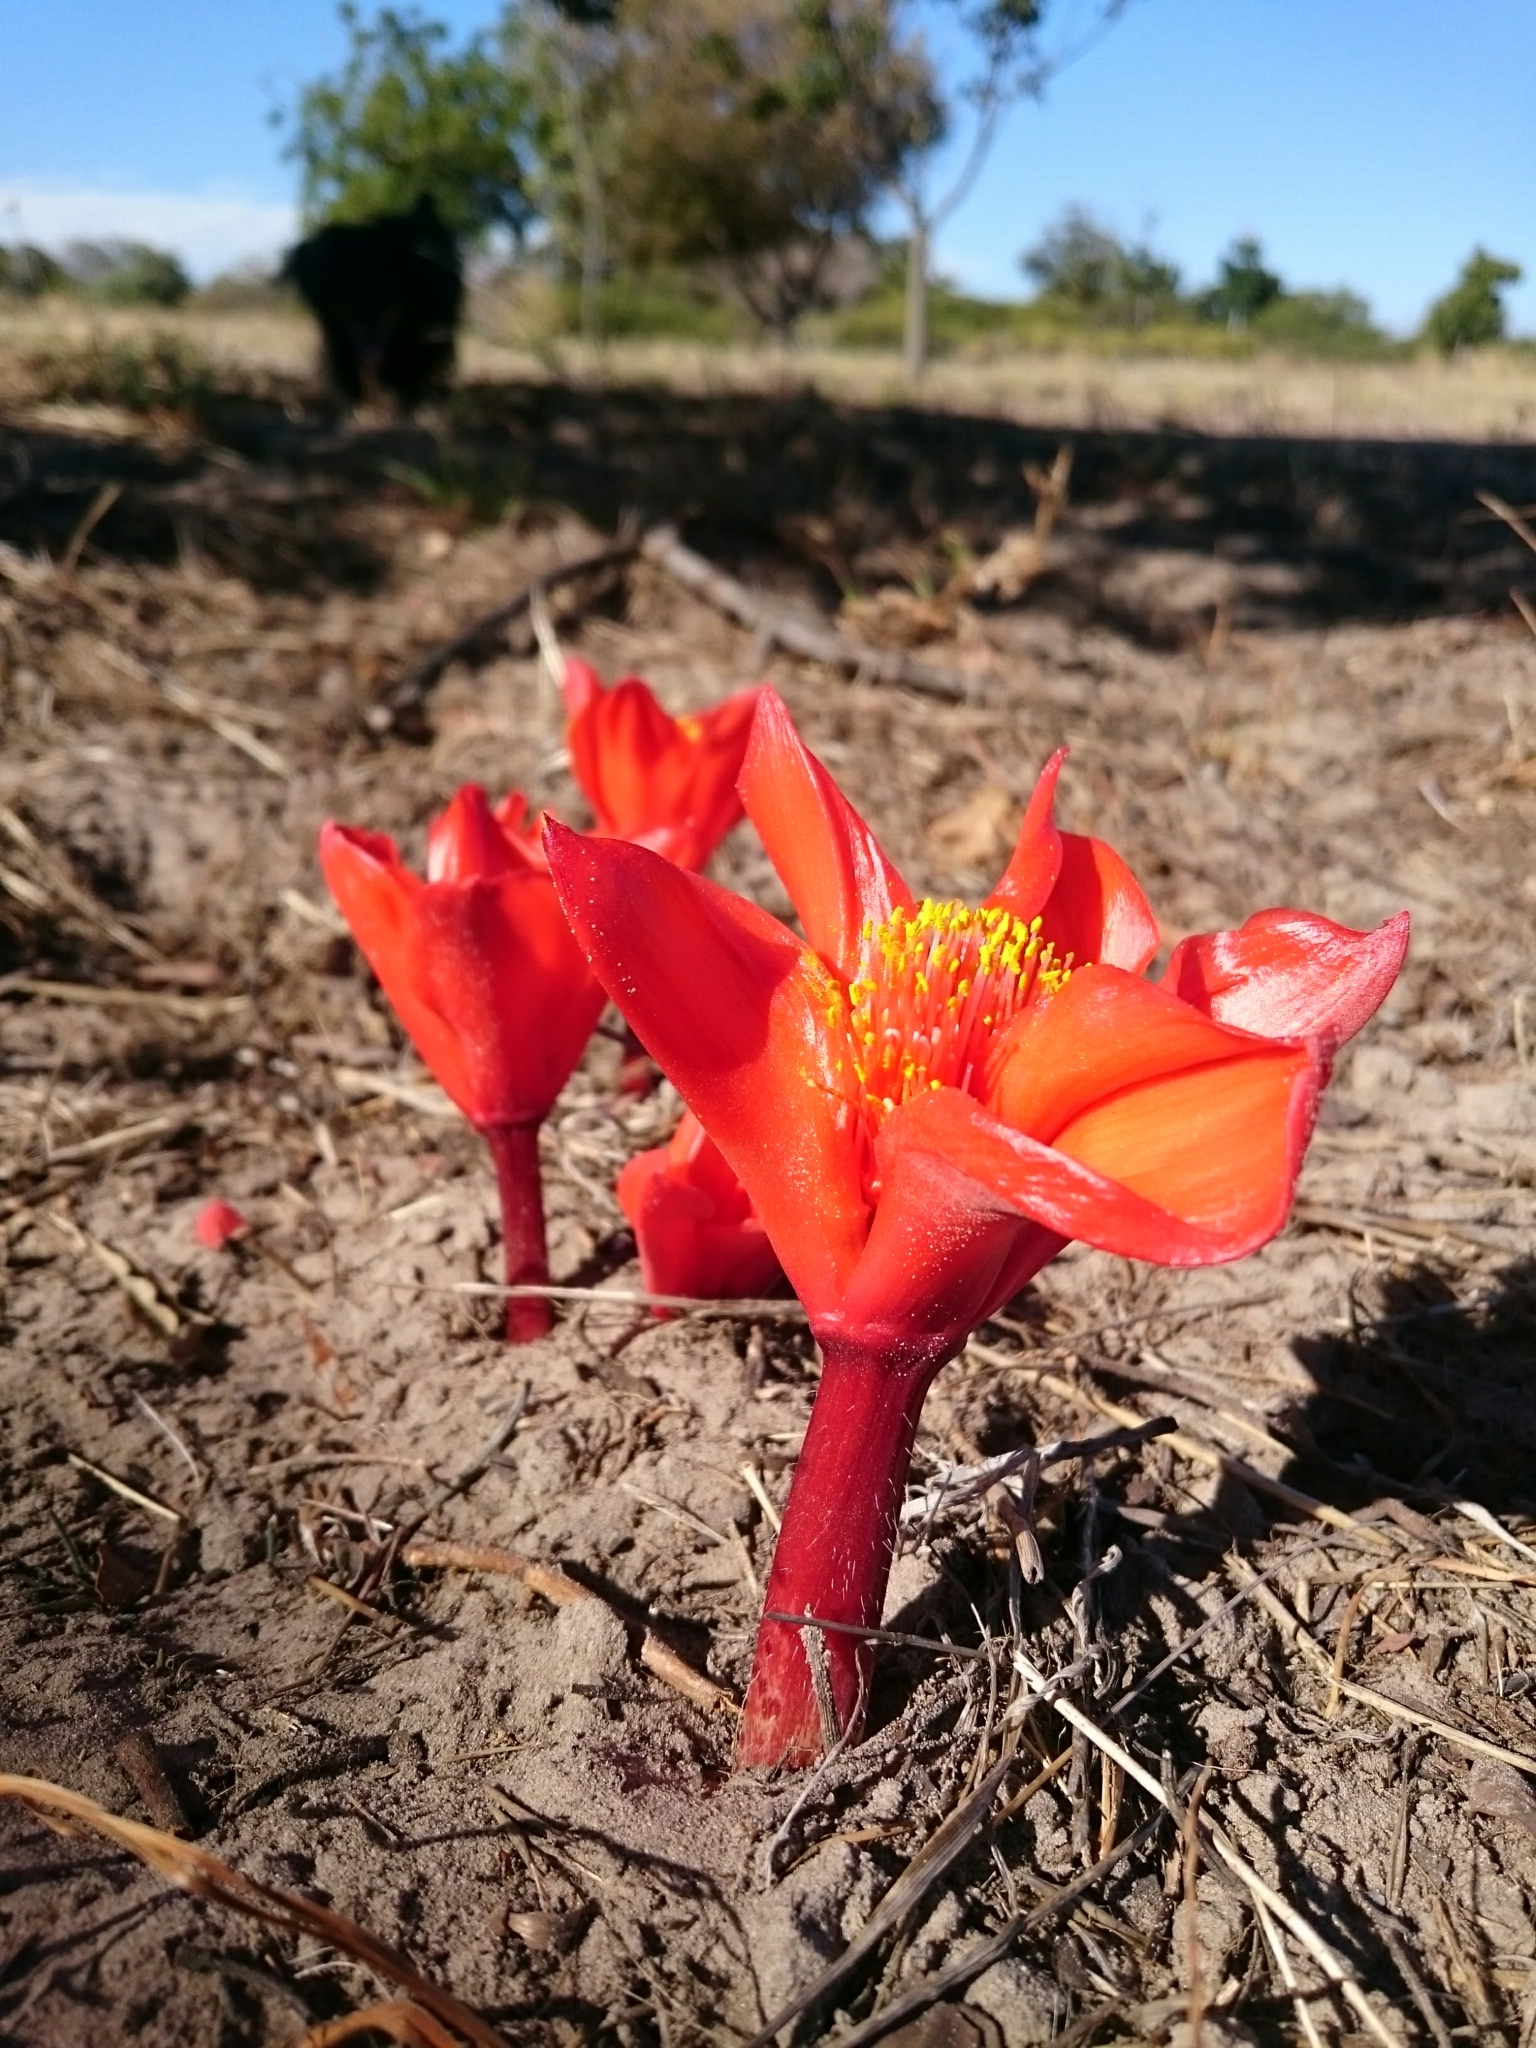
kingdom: Plantae
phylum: Tracheophyta
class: Liliopsida
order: Asparagales
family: Amaryllidaceae
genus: Haemanthus
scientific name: Haemanthus pubescens
